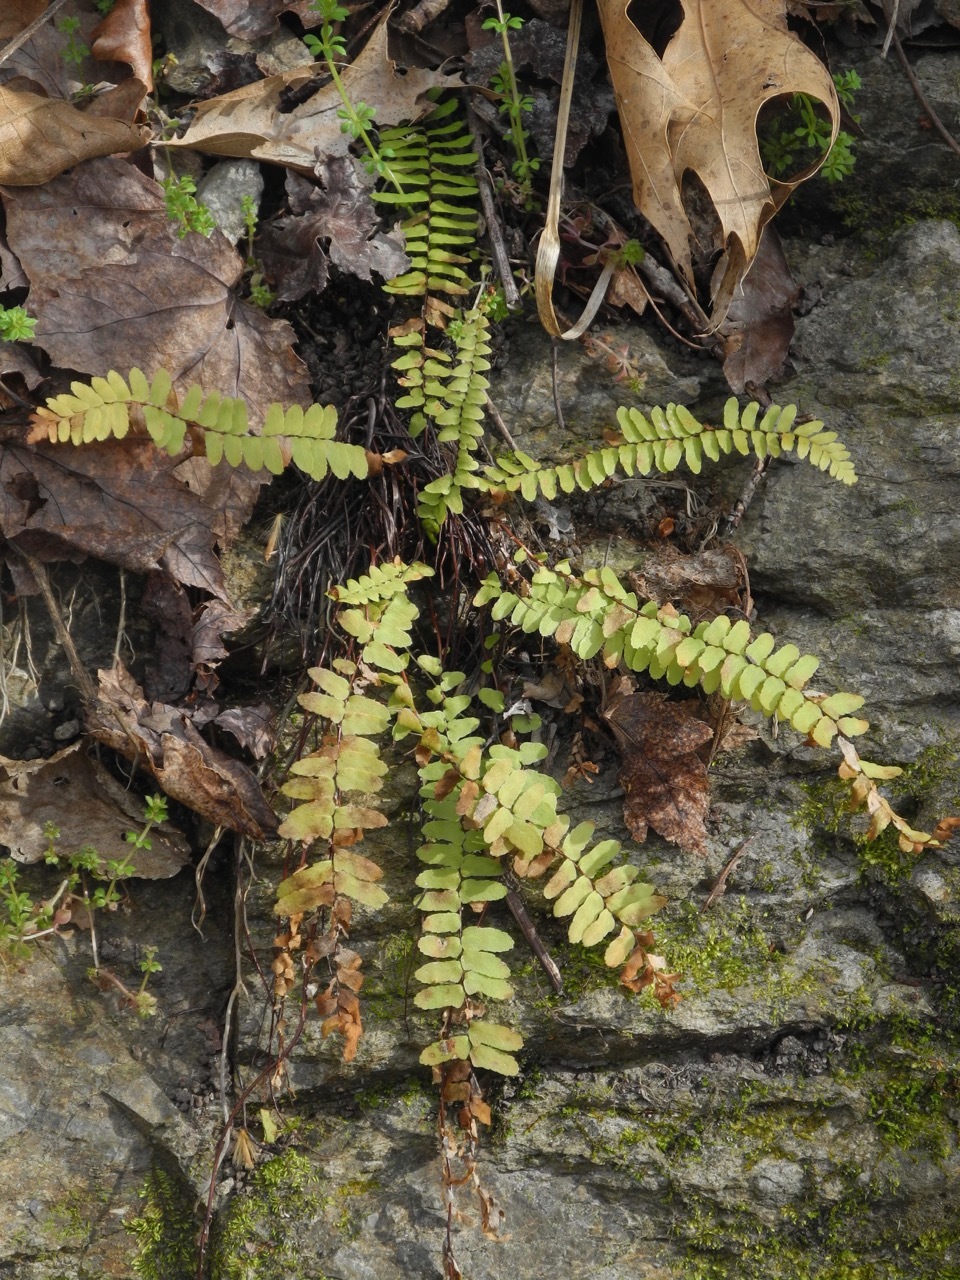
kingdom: Plantae
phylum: Tracheophyta
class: Polypodiopsida
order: Polypodiales
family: Aspleniaceae
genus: Asplenium
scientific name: Asplenium platyneuron
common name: Ebony spleenwort
